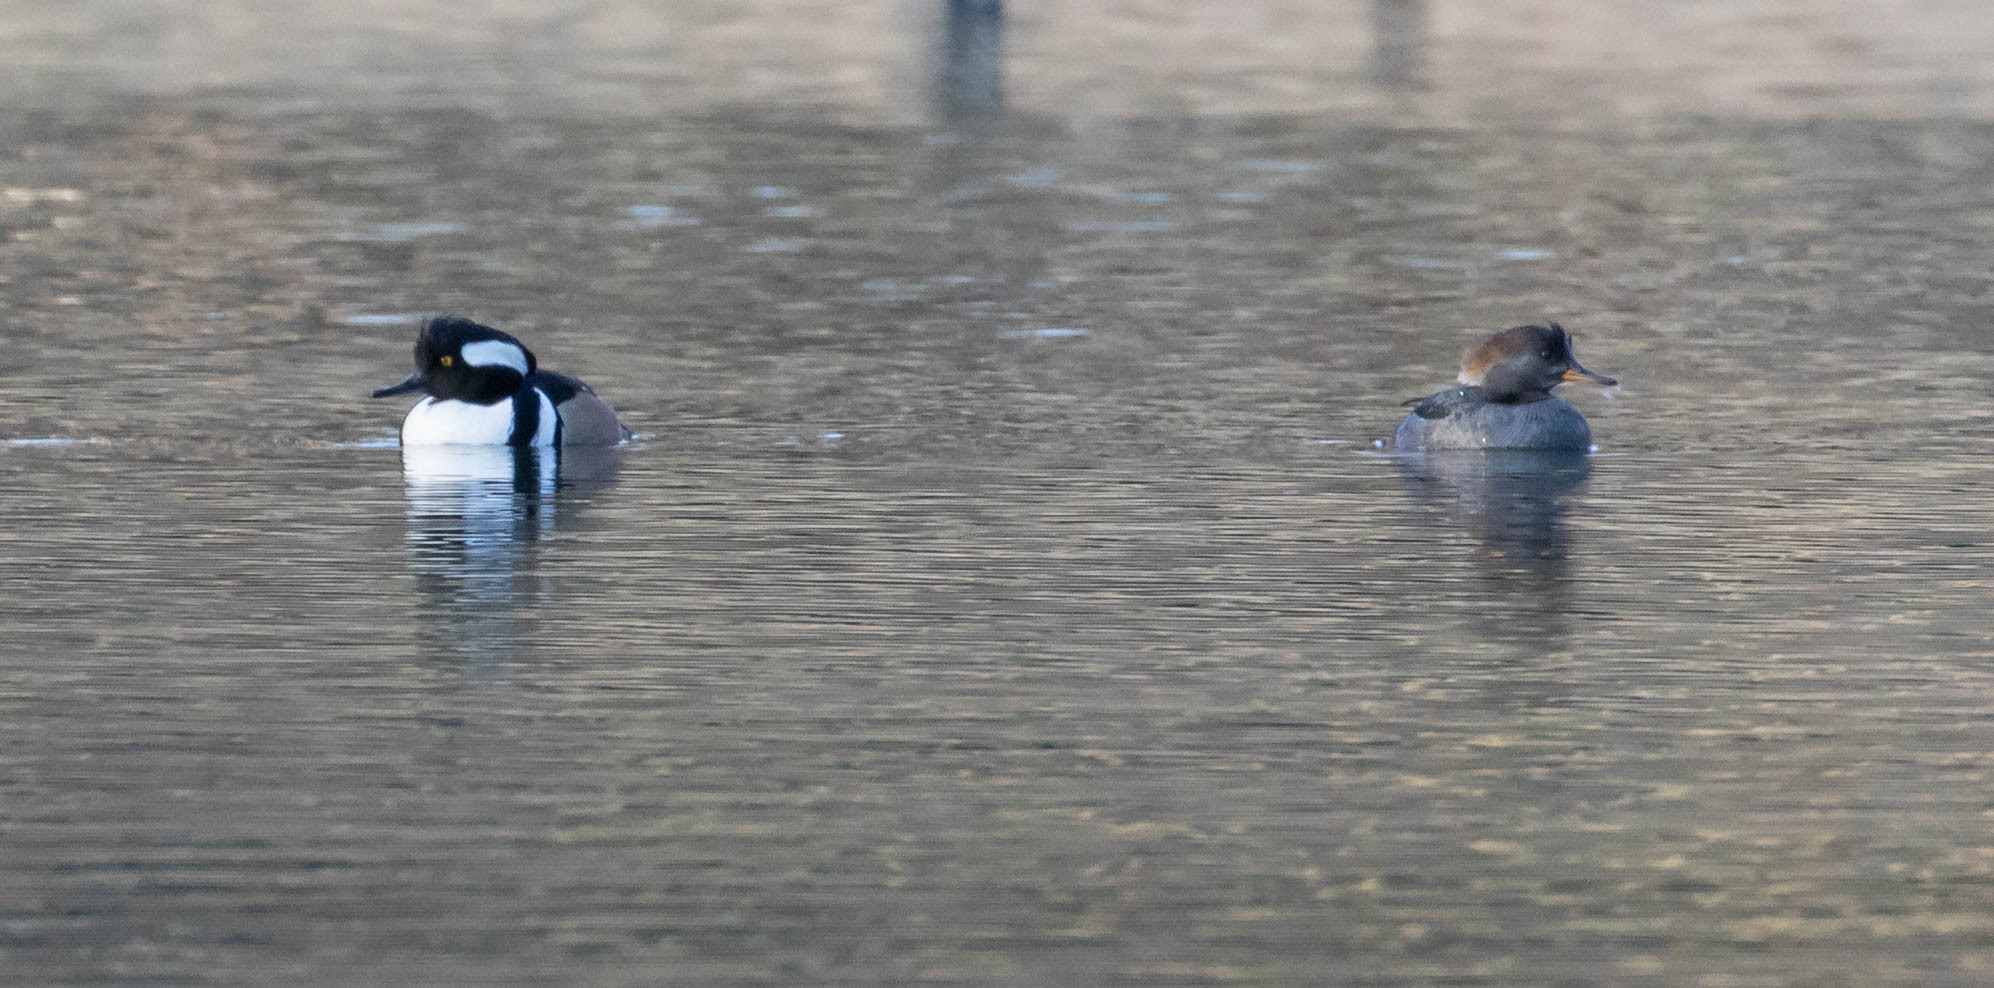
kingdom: Animalia
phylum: Chordata
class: Aves
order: Anseriformes
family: Anatidae
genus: Lophodytes
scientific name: Lophodytes cucullatus
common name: Hooded merganser
